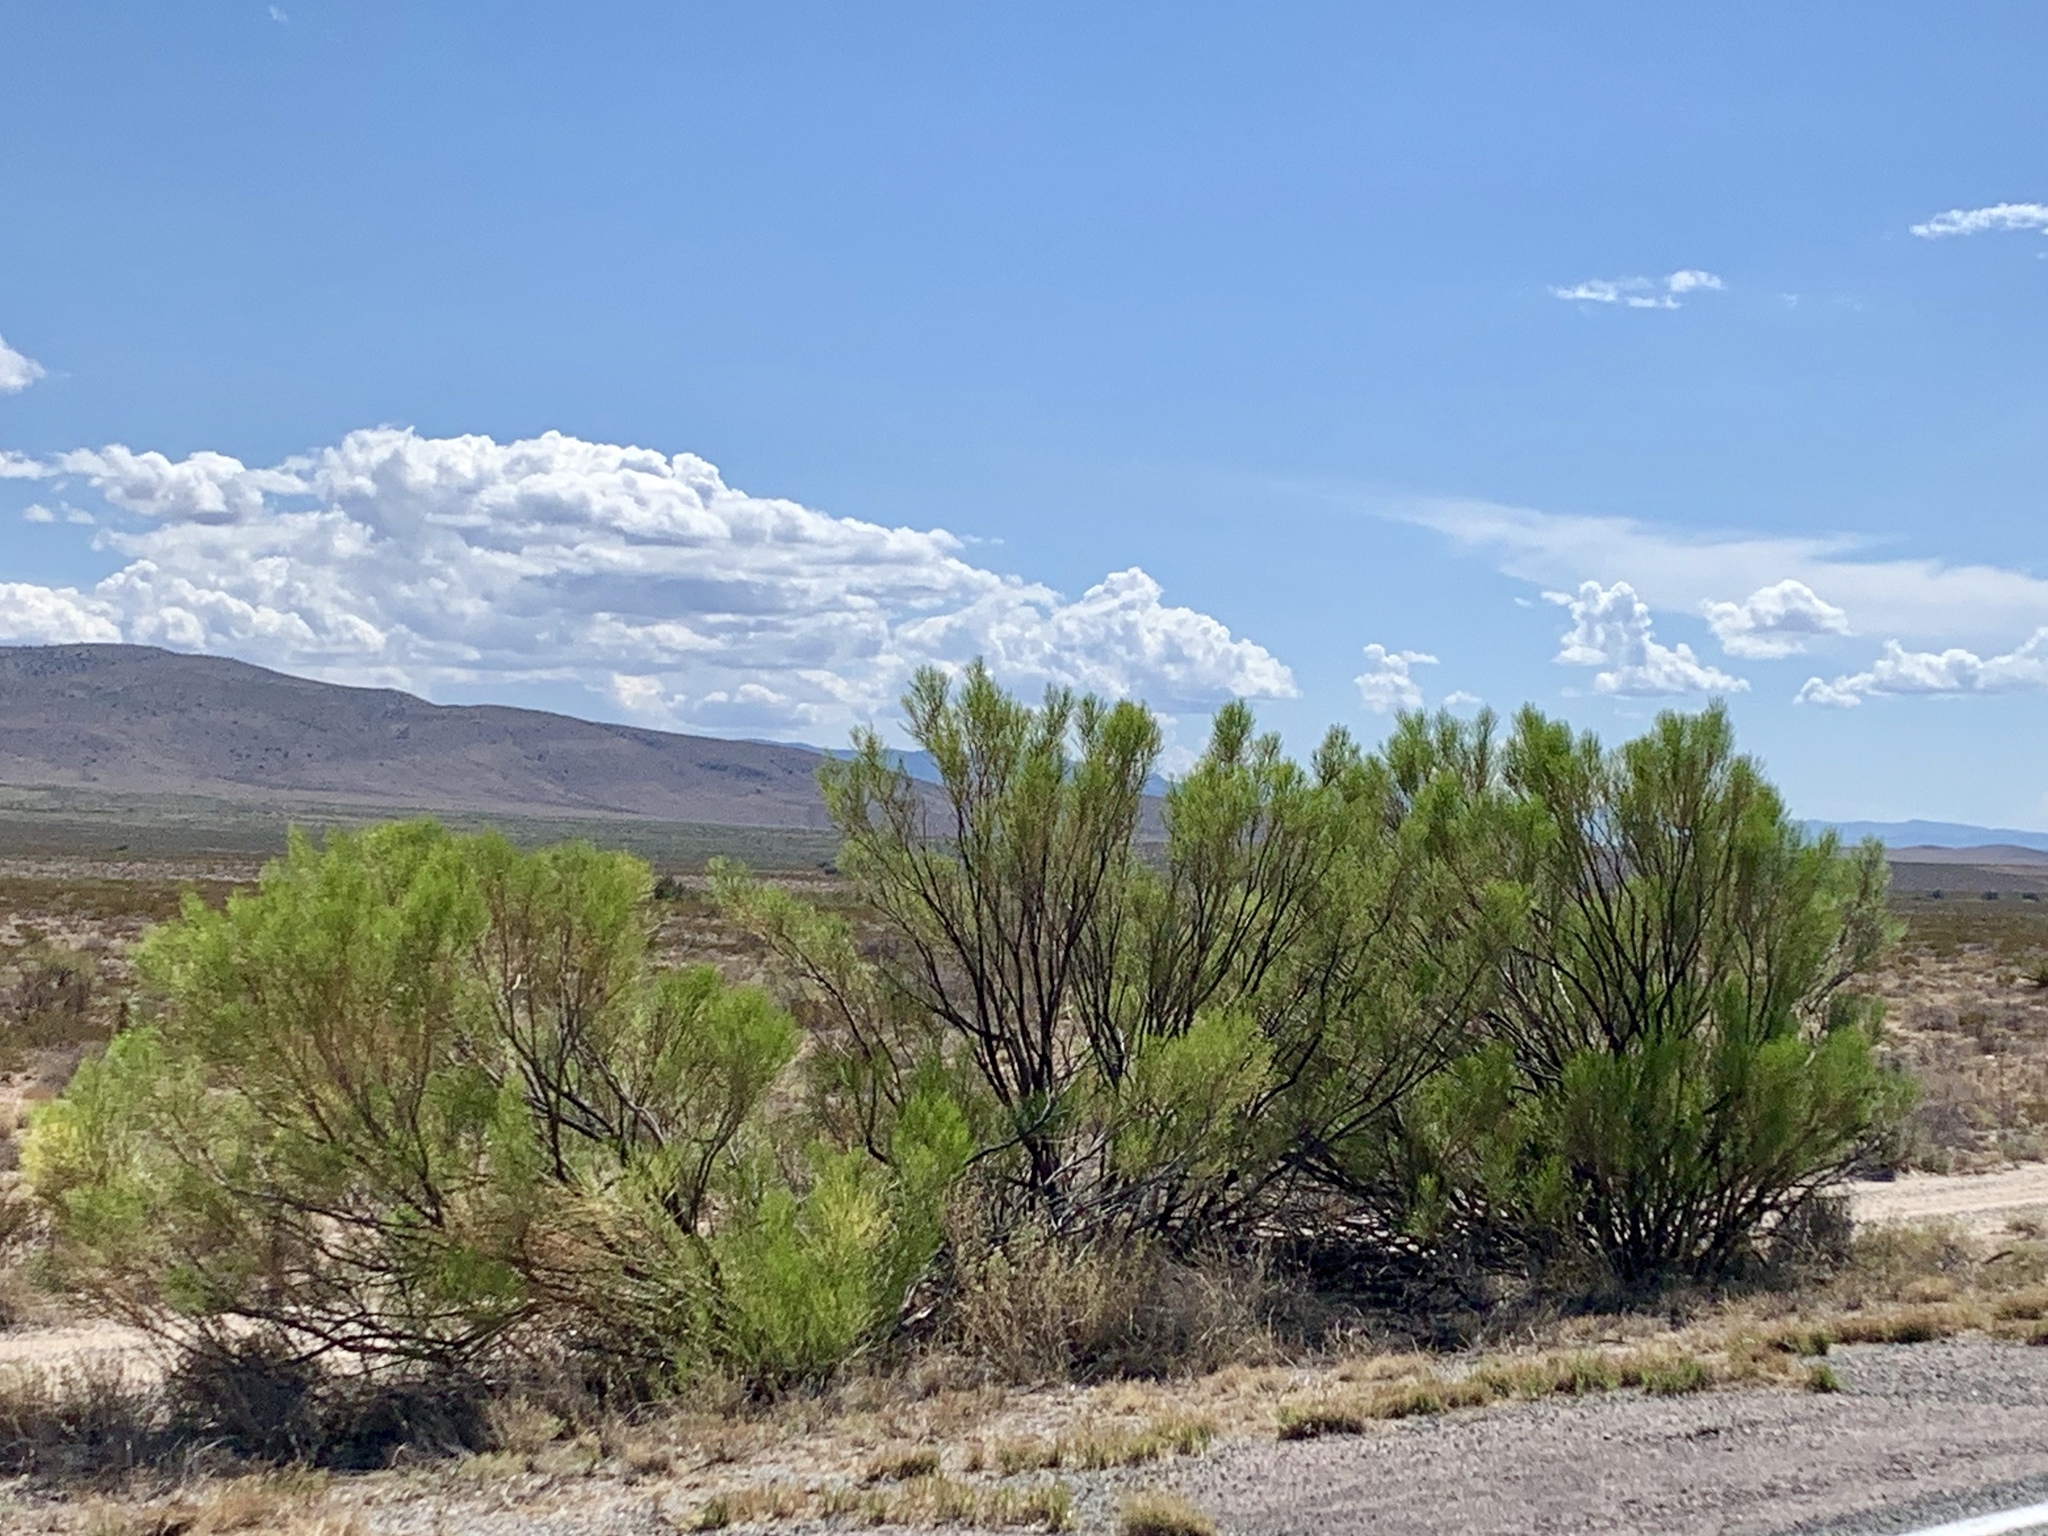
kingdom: Plantae
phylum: Tracheophyta
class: Magnoliopsida
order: Asterales
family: Asteraceae
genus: Baccharis
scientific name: Baccharis sarothroides
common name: Desert-broom
